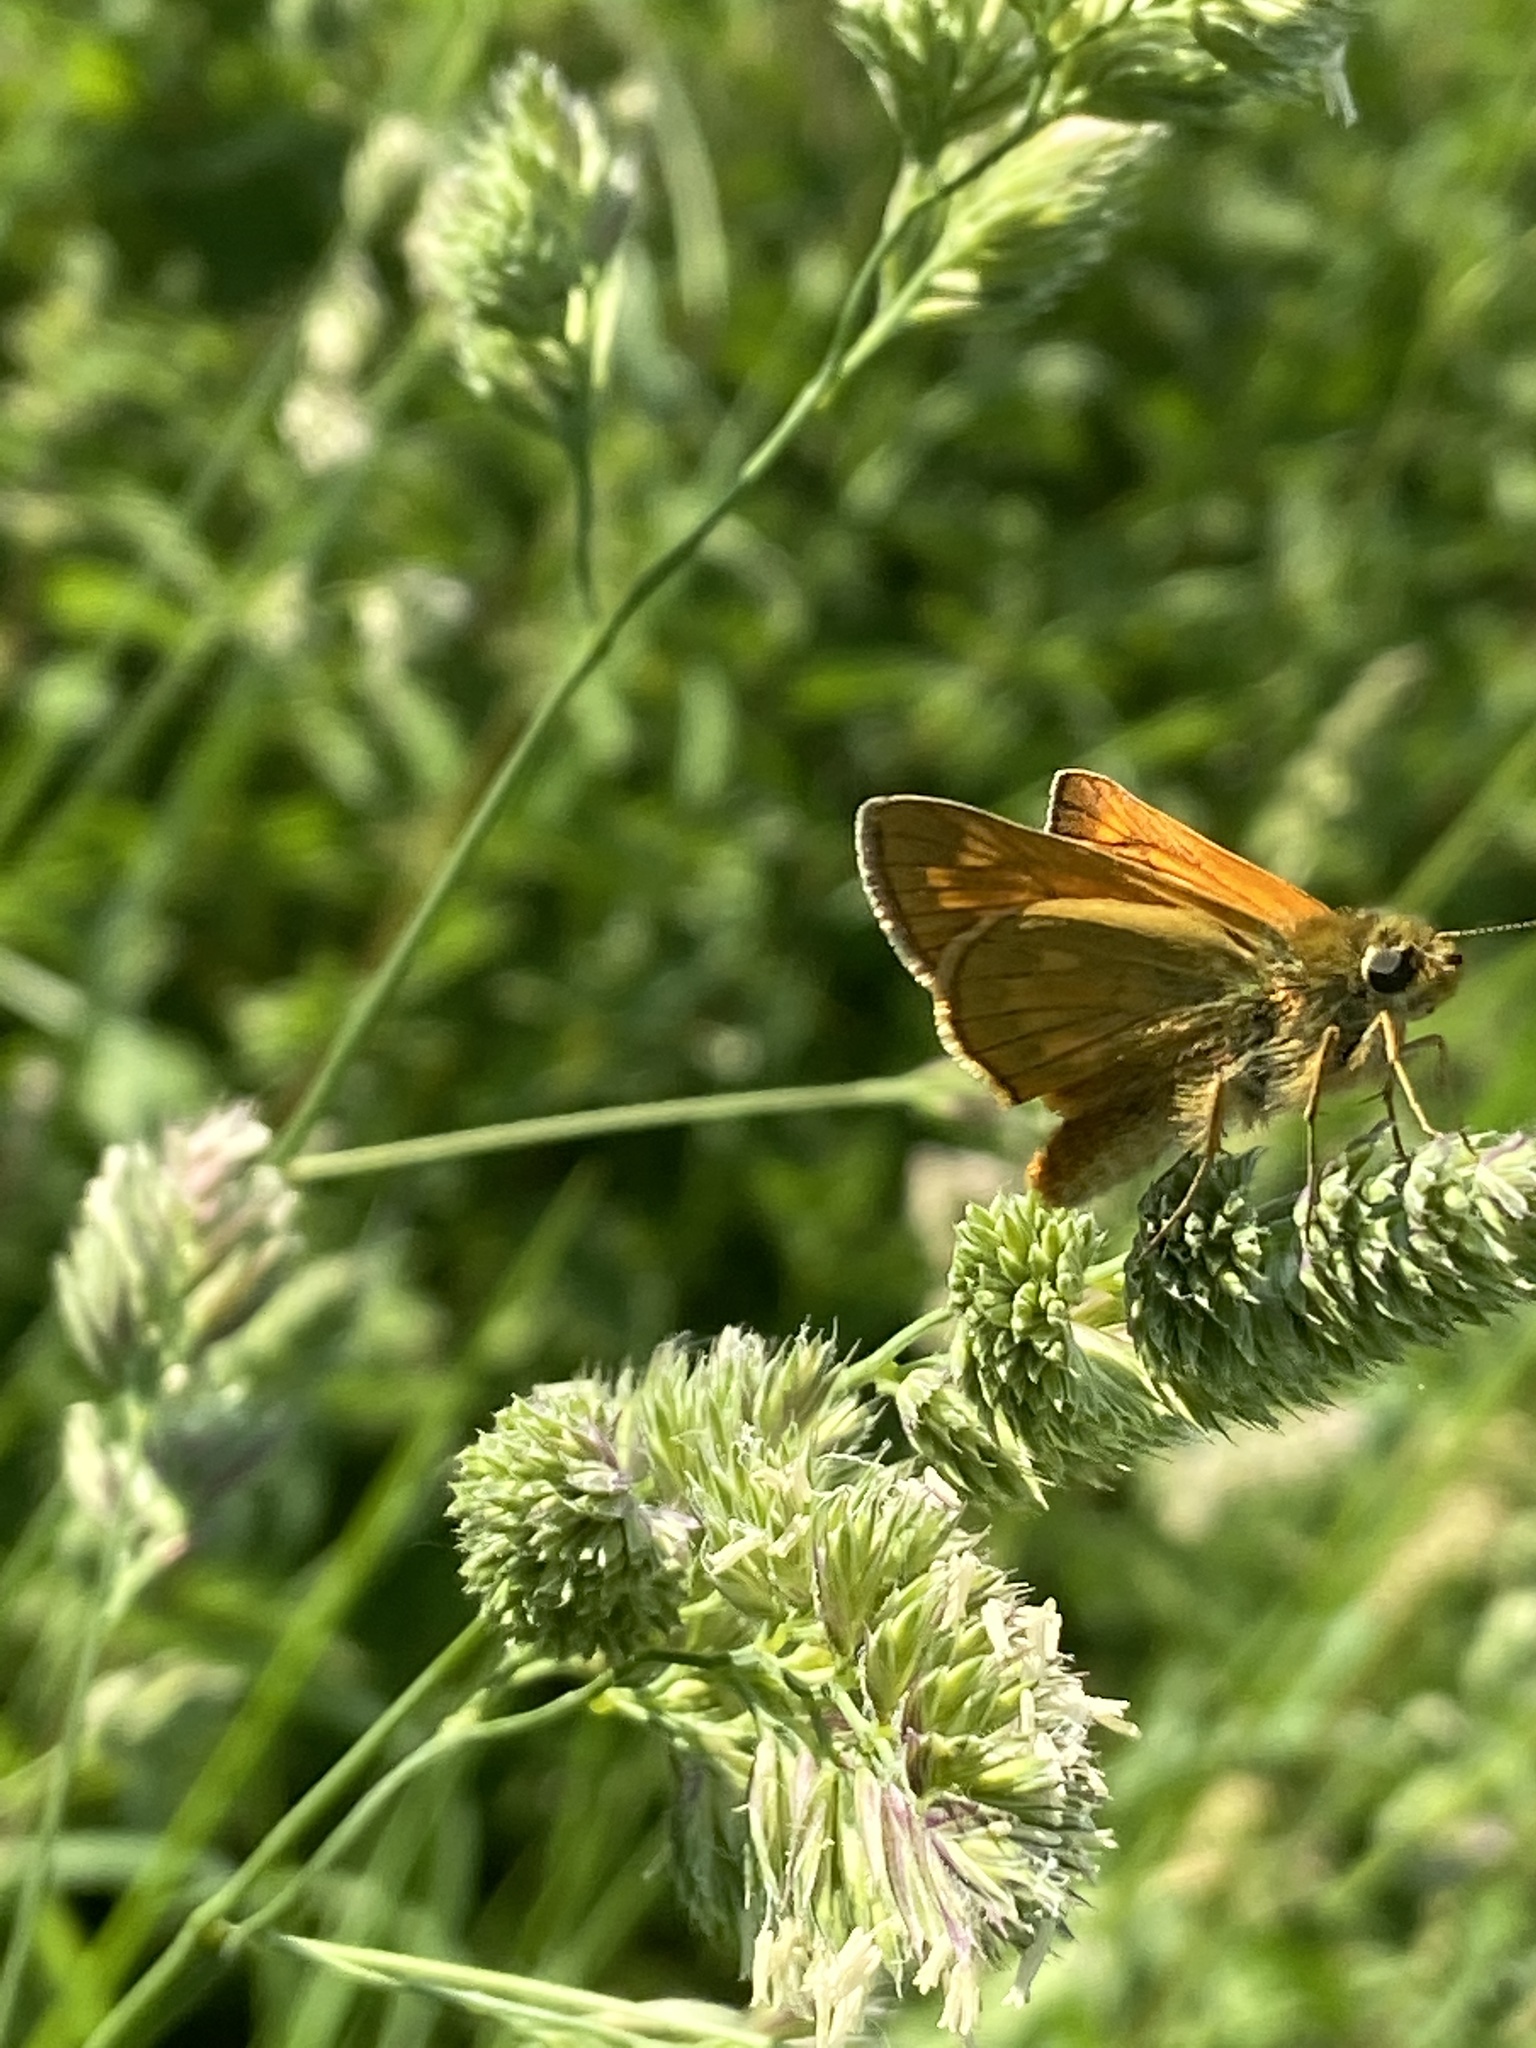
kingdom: Animalia
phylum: Arthropoda
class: Insecta
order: Lepidoptera
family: Hesperiidae
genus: Ochlodes
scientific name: Ochlodes venata
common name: Large skipper
